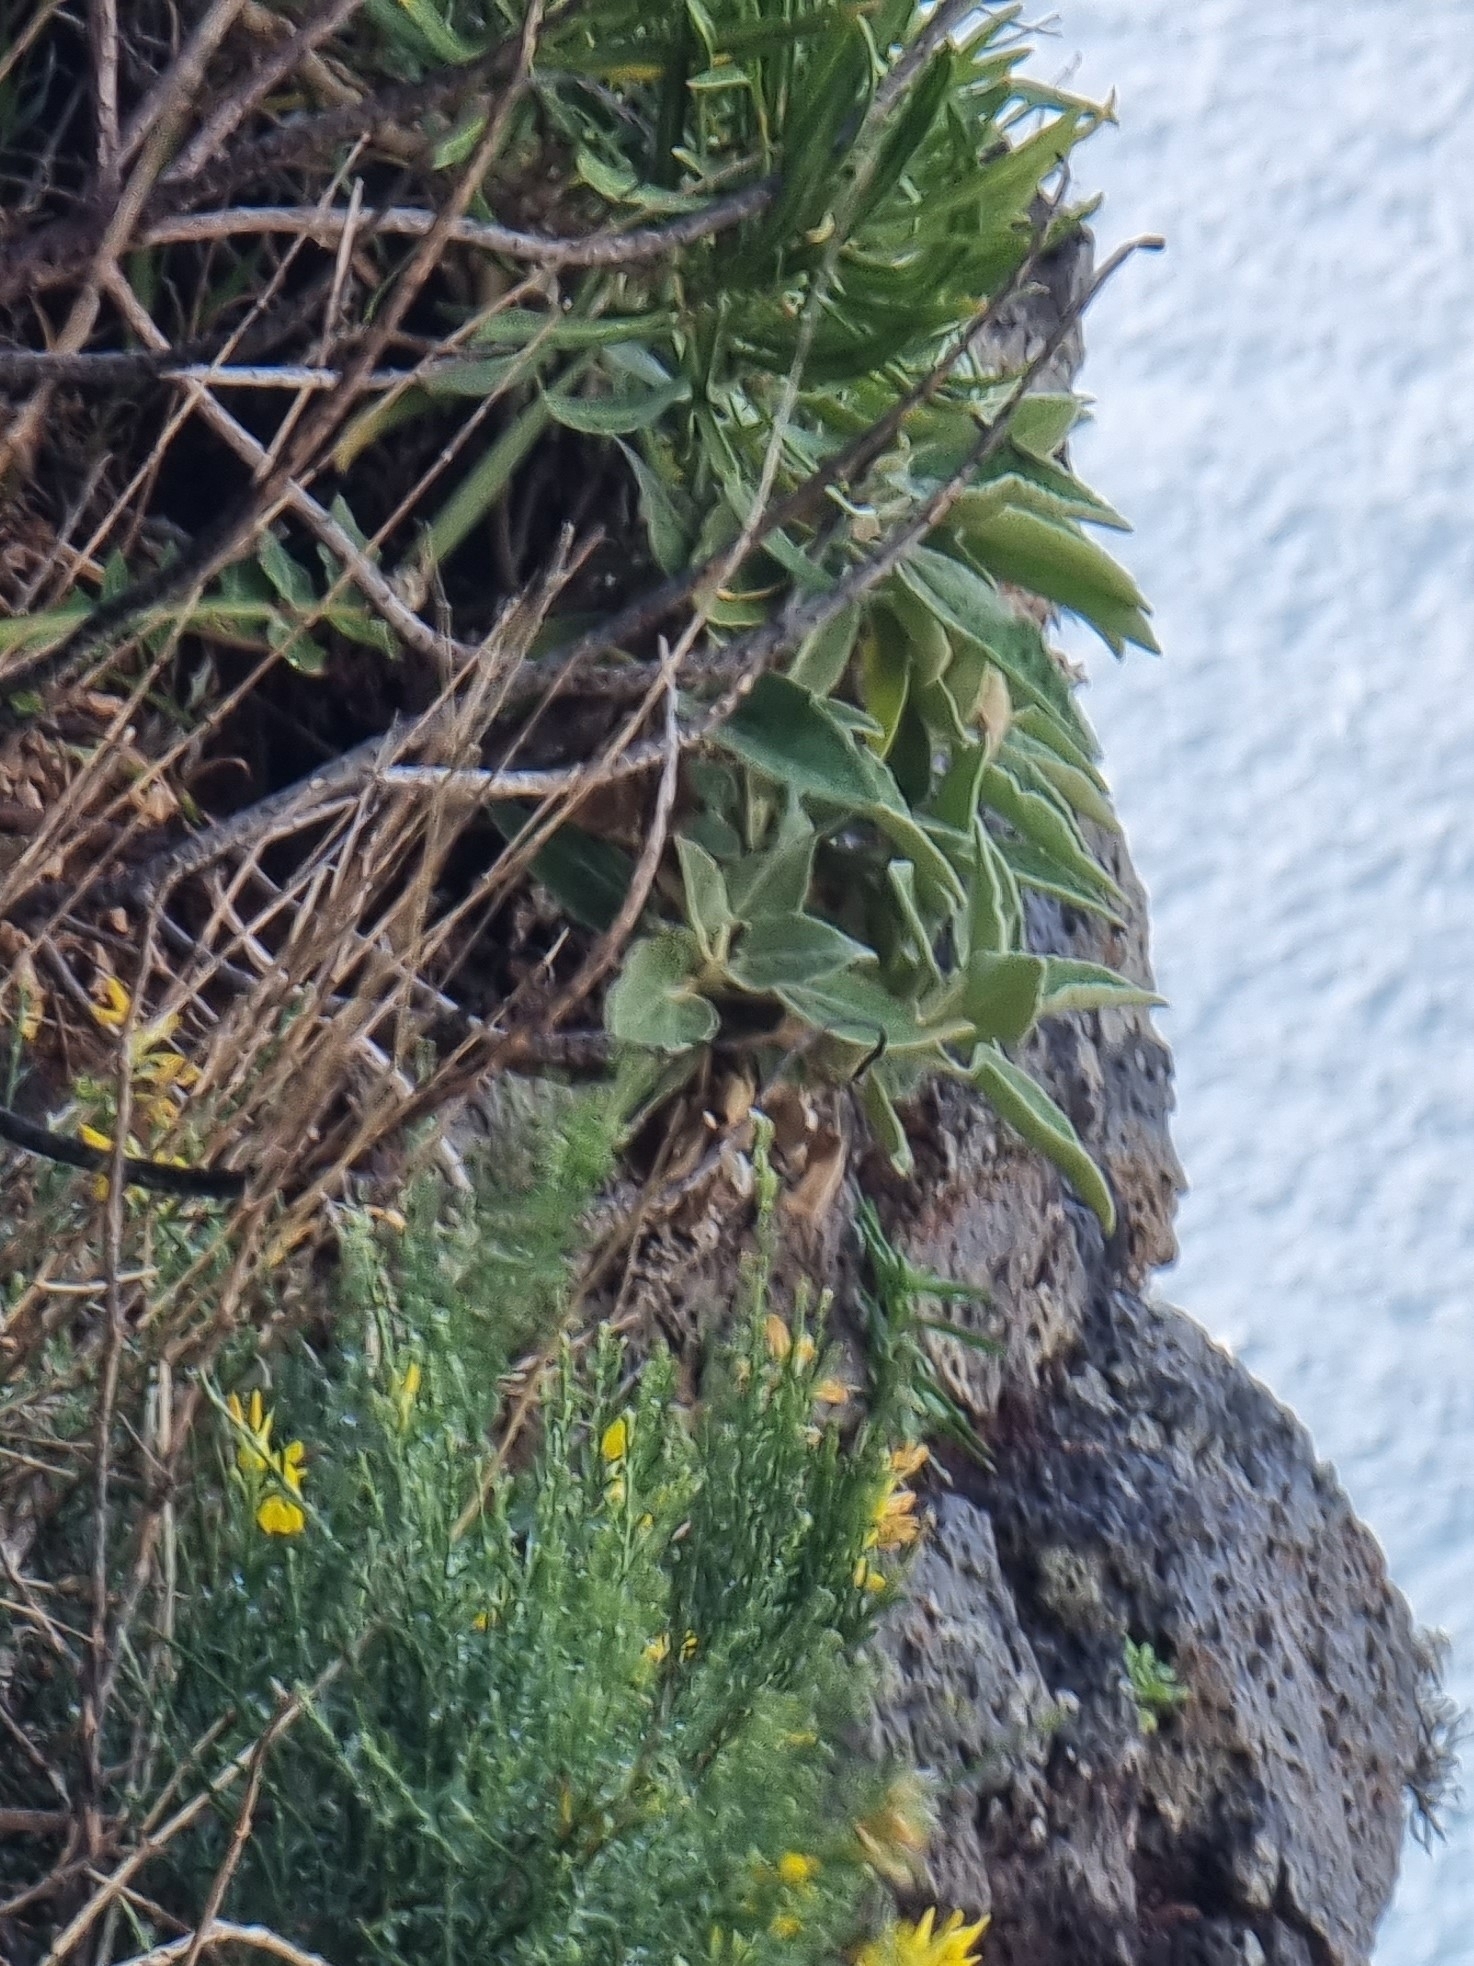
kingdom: Plantae
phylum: Tracheophyta
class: Magnoliopsida
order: Lamiales
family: Lamiaceae
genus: Sideritis
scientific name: Sideritis candicans
